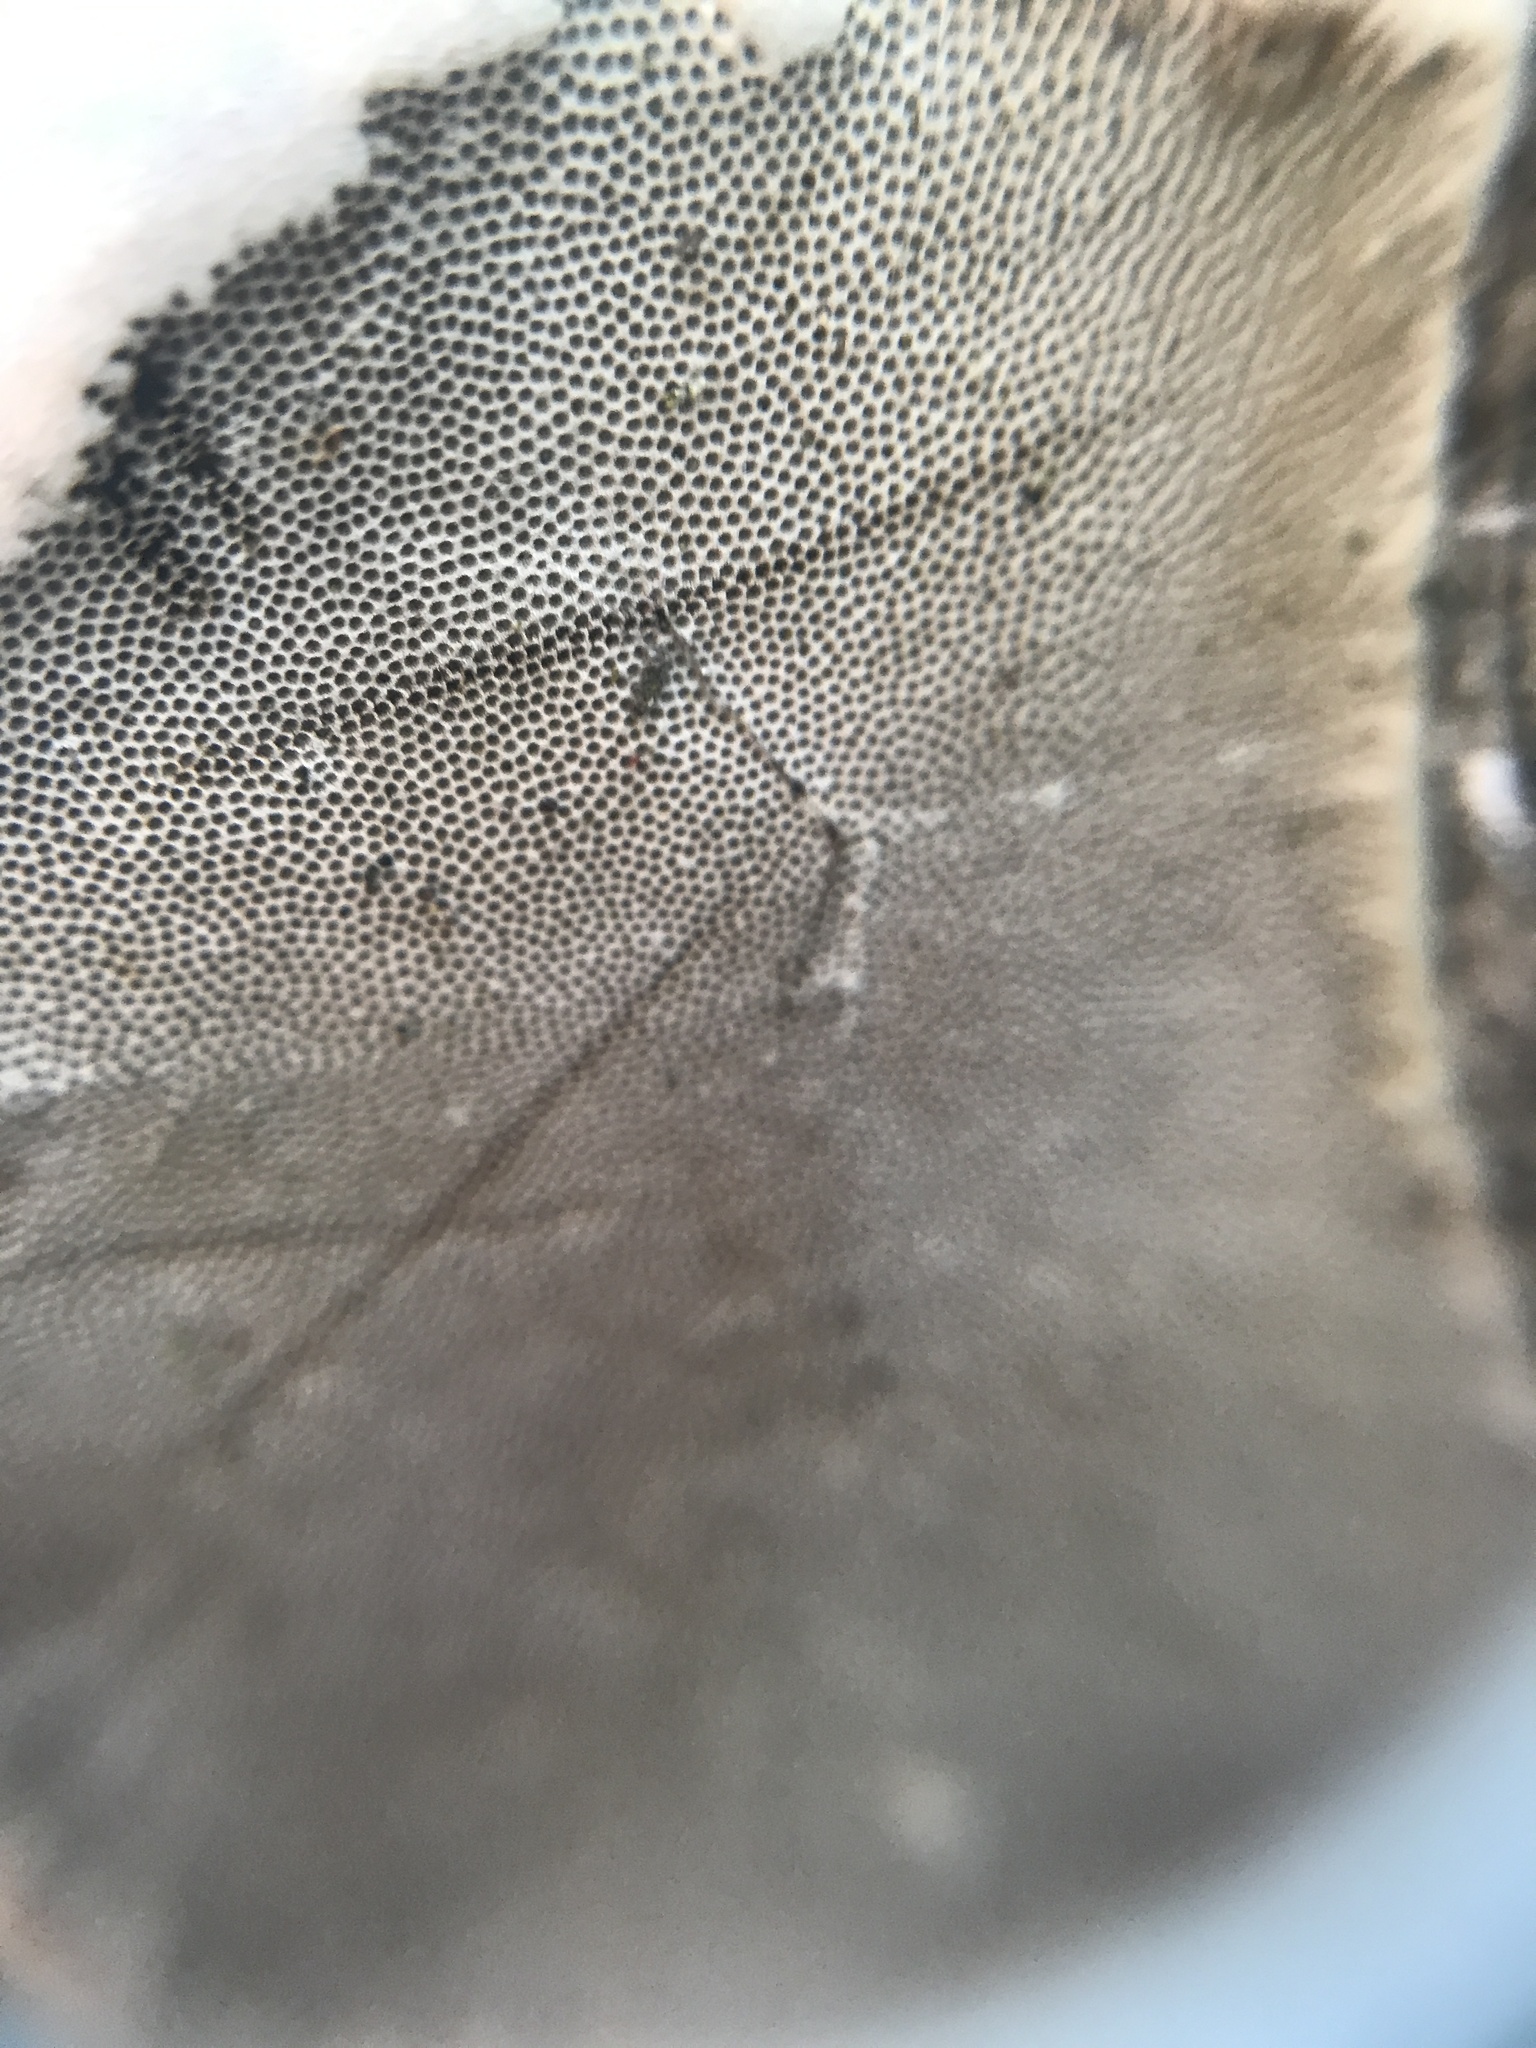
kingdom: Fungi
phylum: Basidiomycota
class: Agaricomycetes
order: Polyporales
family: Polyporaceae
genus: Fomes
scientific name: Fomes fomentarius
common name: Hoof fungus
